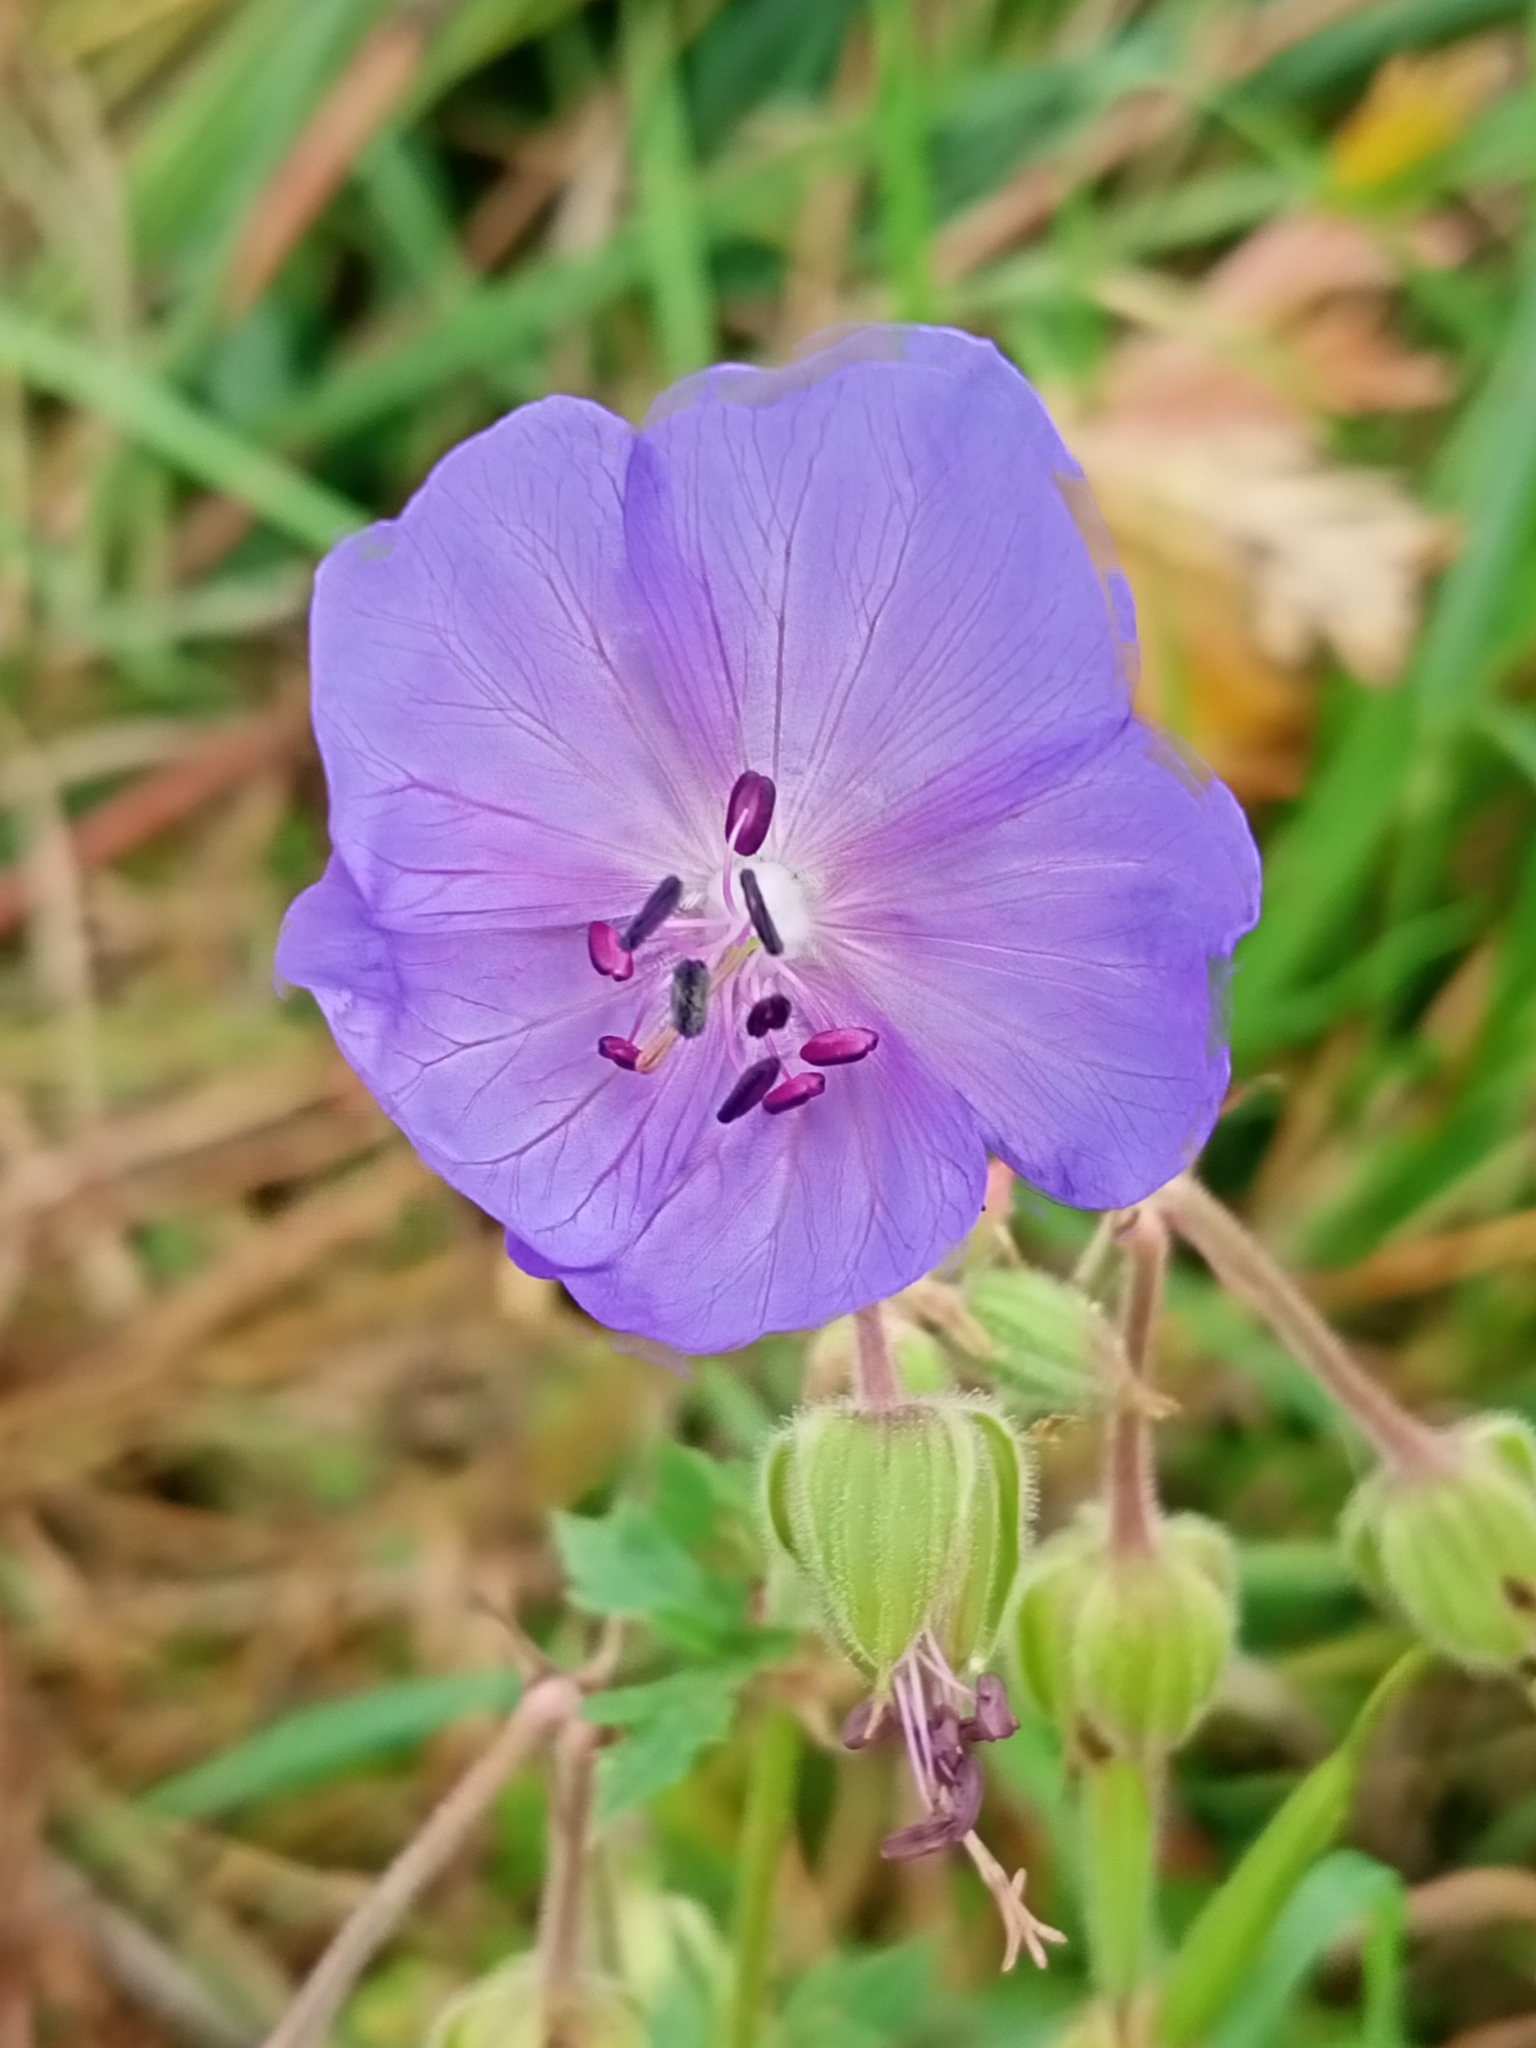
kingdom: Plantae
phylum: Tracheophyta
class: Magnoliopsida
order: Geraniales
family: Geraniaceae
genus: Geranium
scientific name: Geranium pratense
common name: Meadow crane's-bill
